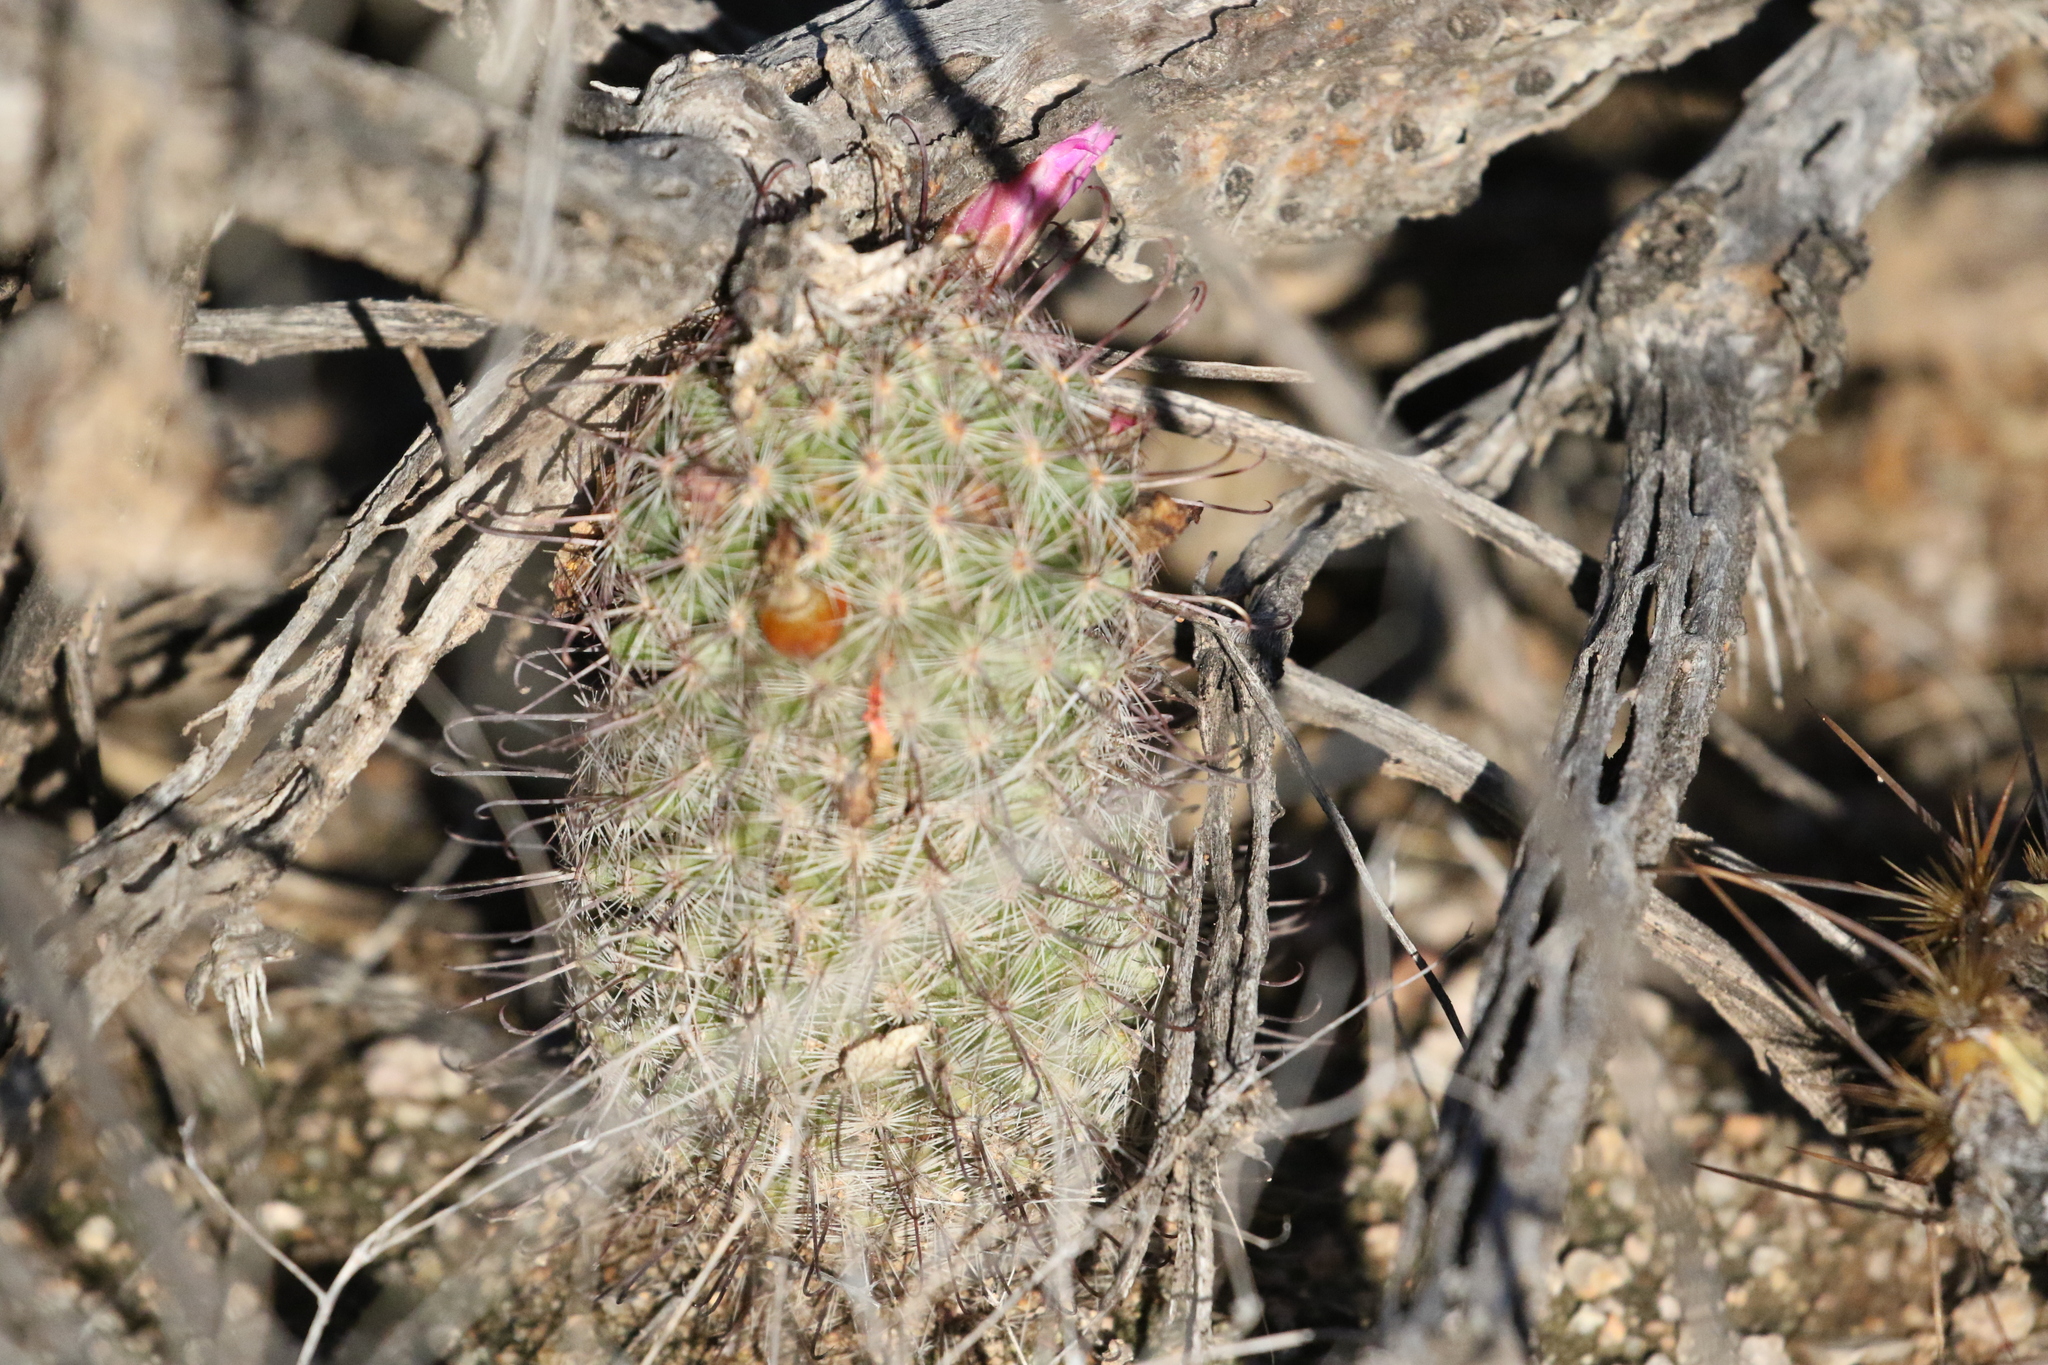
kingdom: Plantae
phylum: Tracheophyta
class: Magnoliopsida
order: Caryophyllales
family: Cactaceae
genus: Cochemiea
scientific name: Cochemiea grahamii
